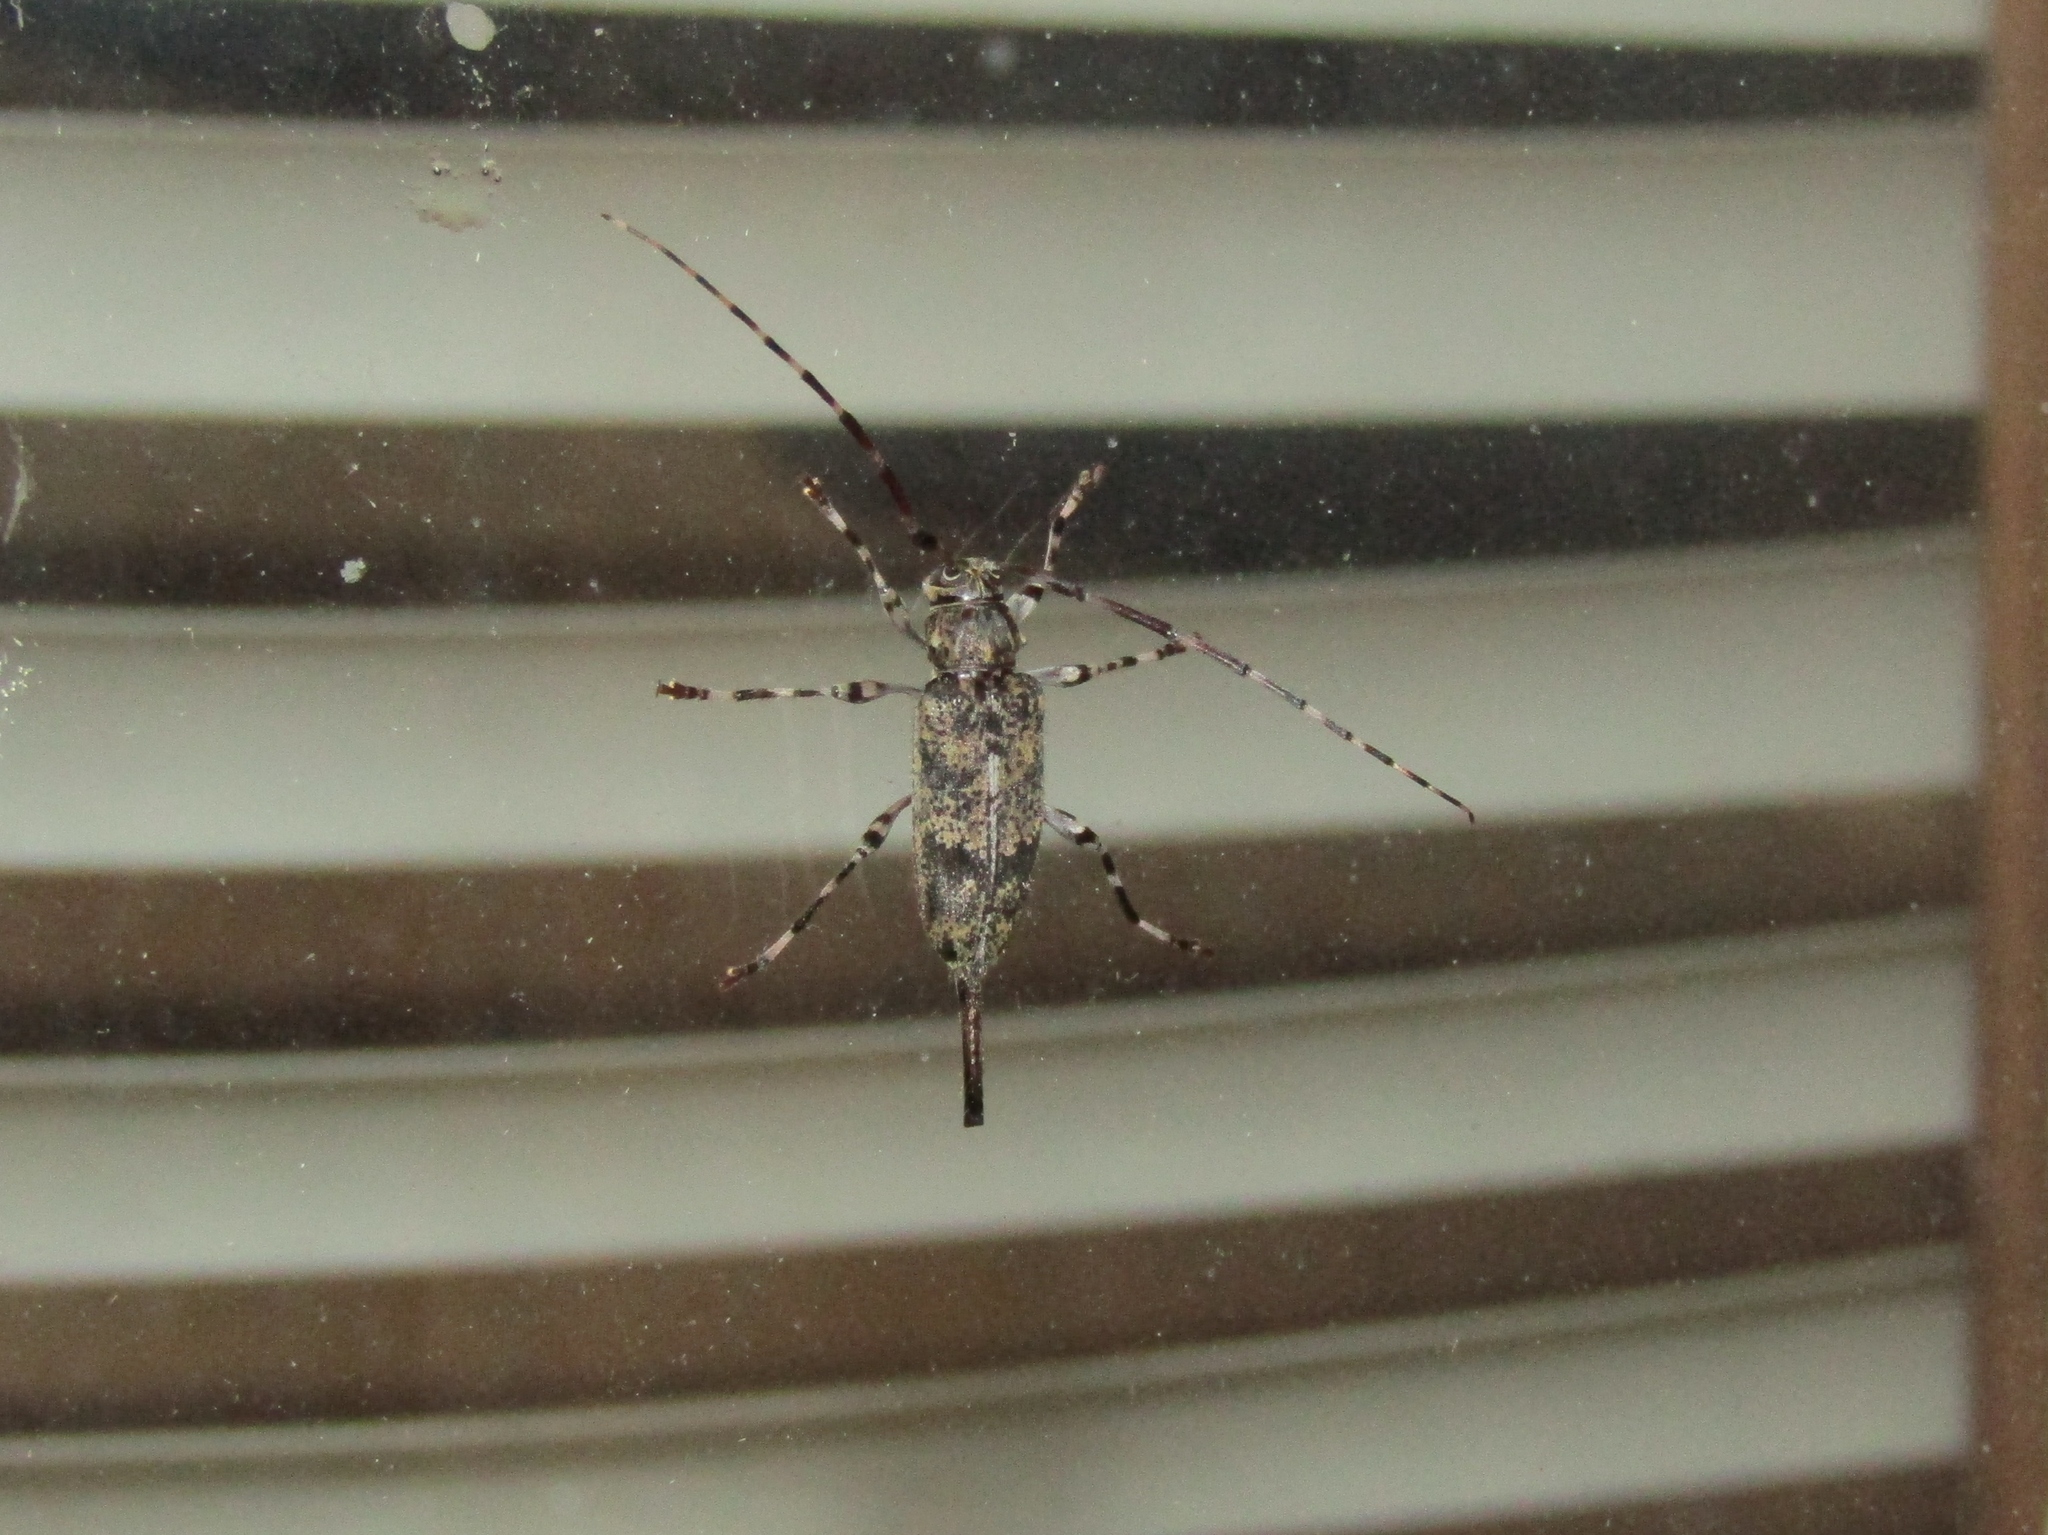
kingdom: Animalia
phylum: Arthropoda
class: Insecta
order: Coleoptera
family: Cerambycidae
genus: Graphisurus
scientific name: Graphisurus fasciatus
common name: Banded graphisurus
